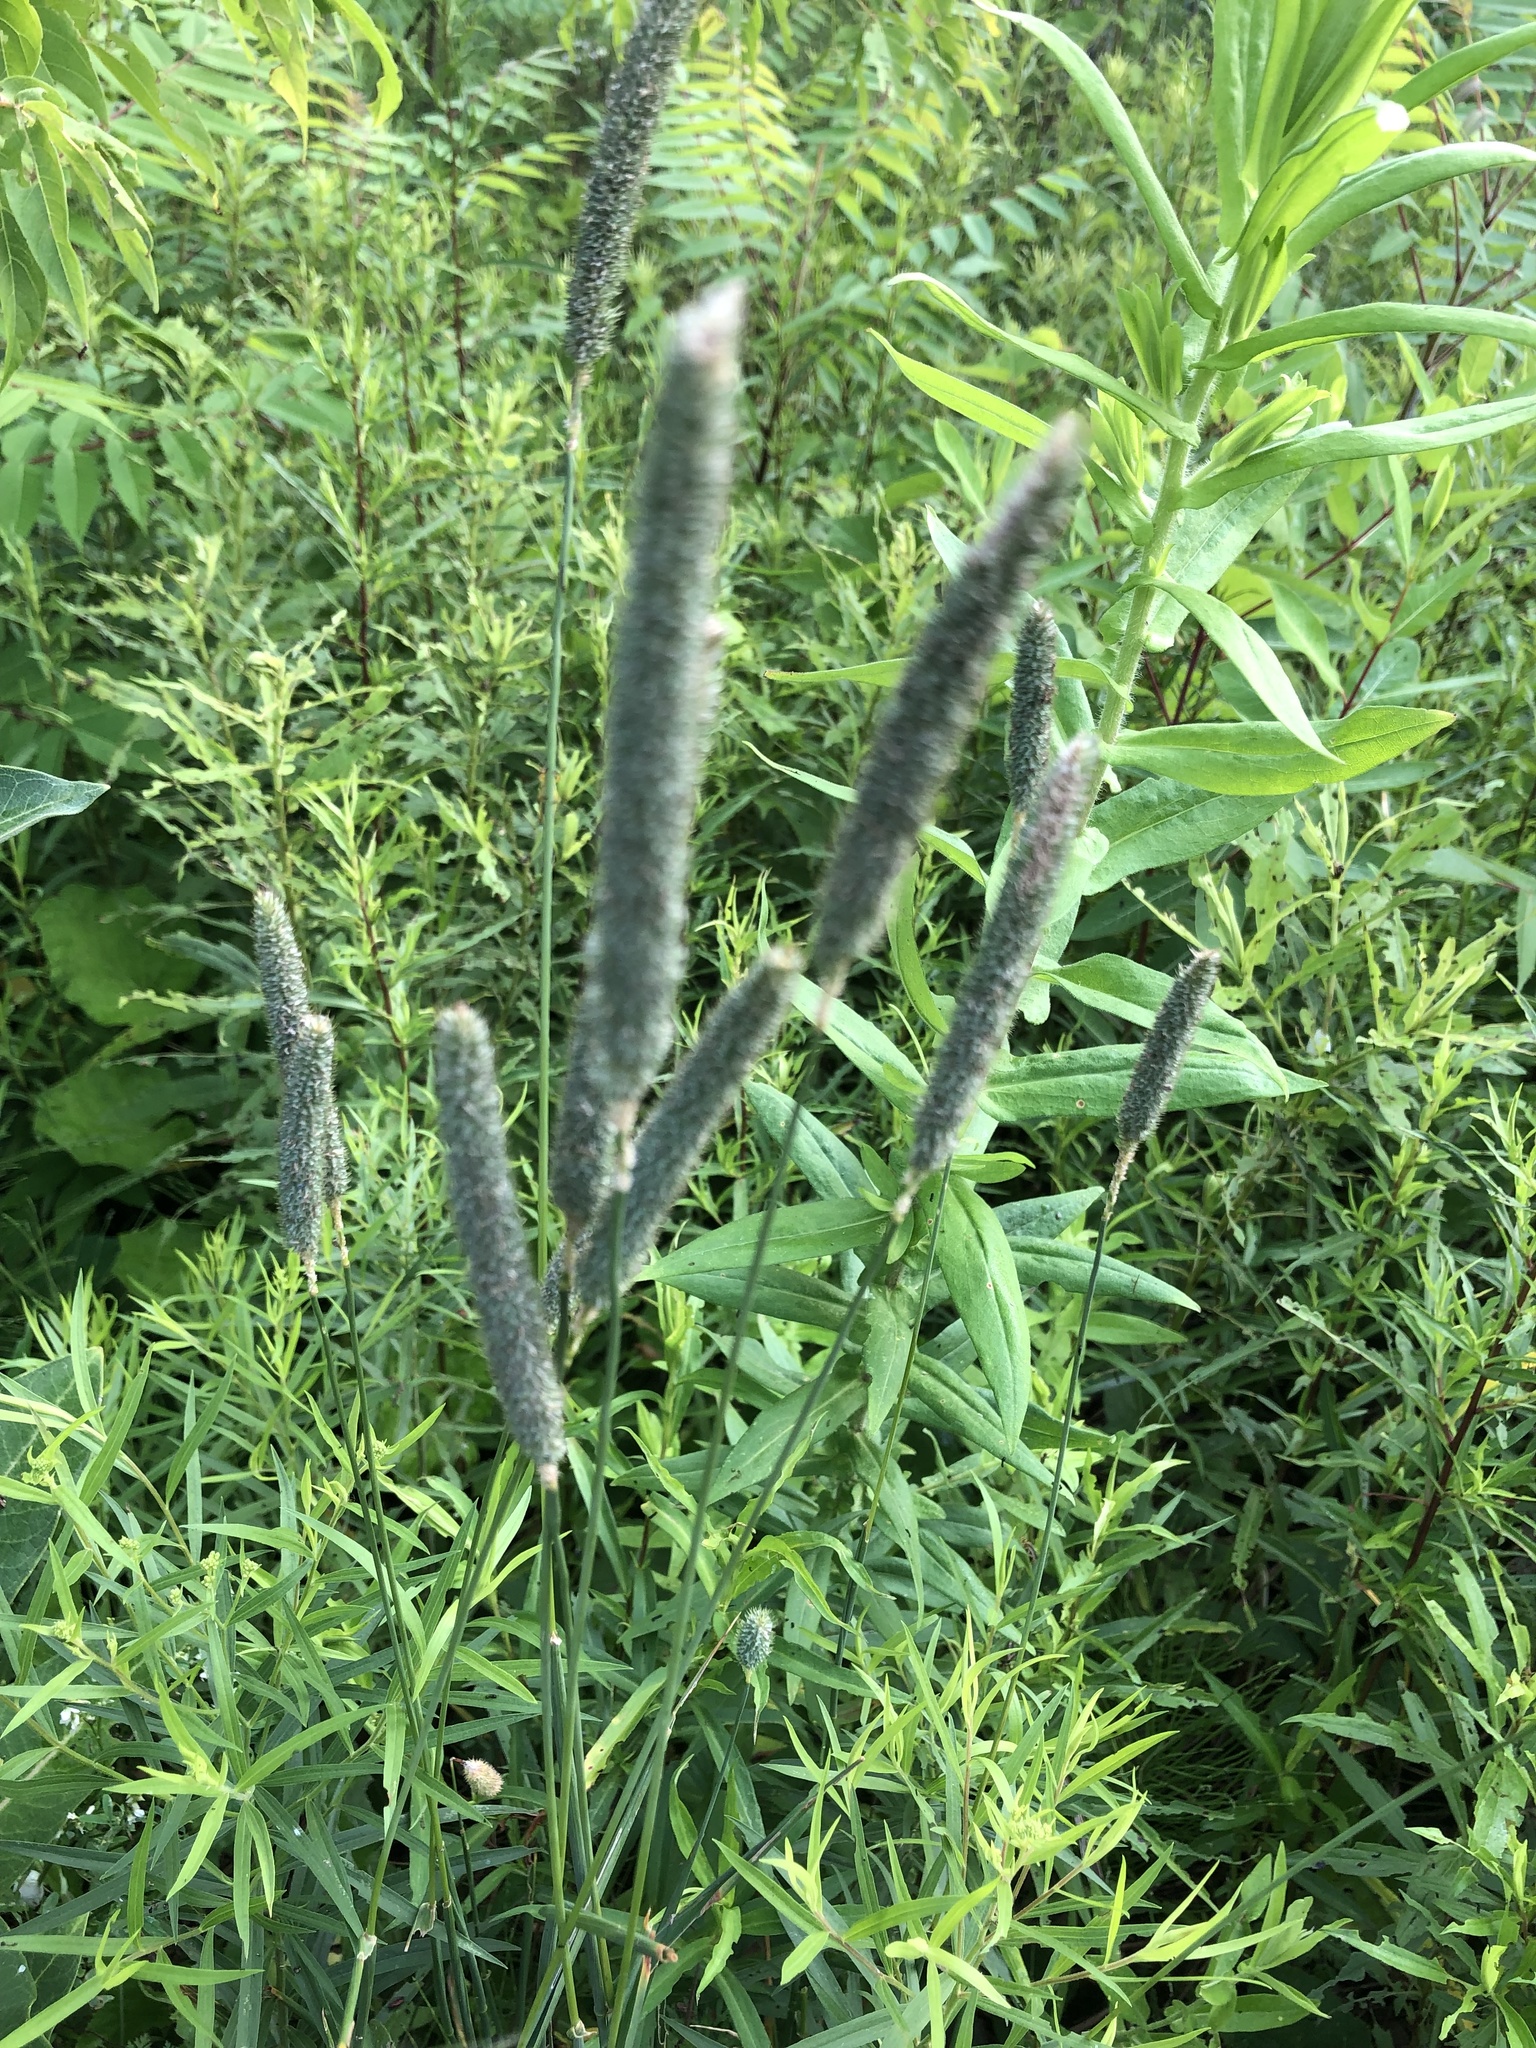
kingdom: Plantae
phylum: Tracheophyta
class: Liliopsida
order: Poales
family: Poaceae
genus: Phleum
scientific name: Phleum pratense
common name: Timothy grass
